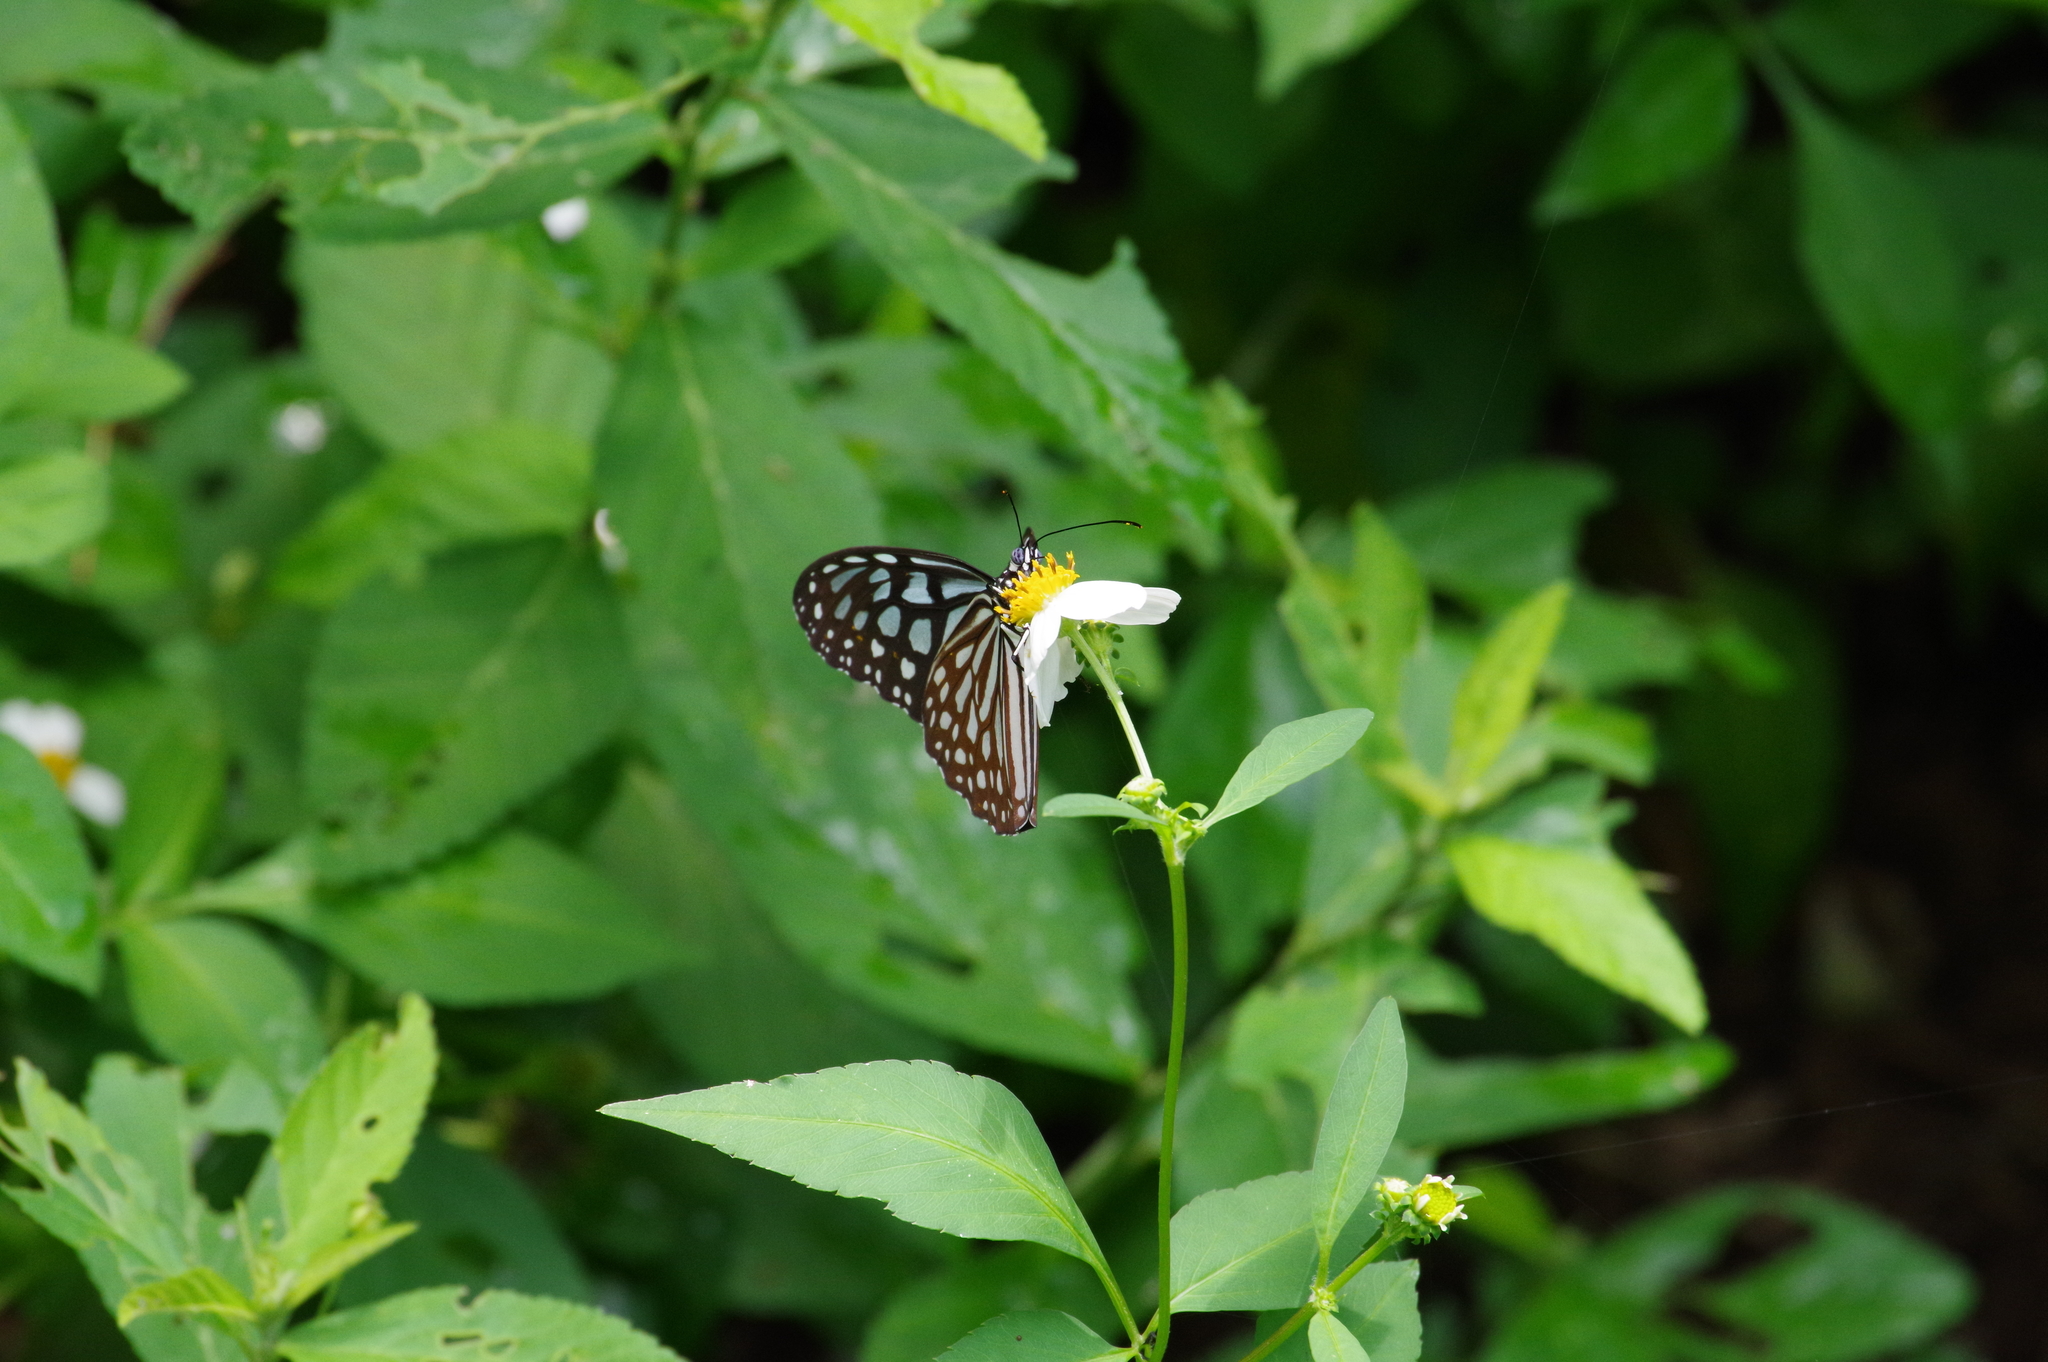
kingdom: Animalia
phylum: Arthropoda
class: Insecta
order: Lepidoptera
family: Nymphalidae
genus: Ideopsis
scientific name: Ideopsis similis
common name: Ceylon blue glassy tiger
